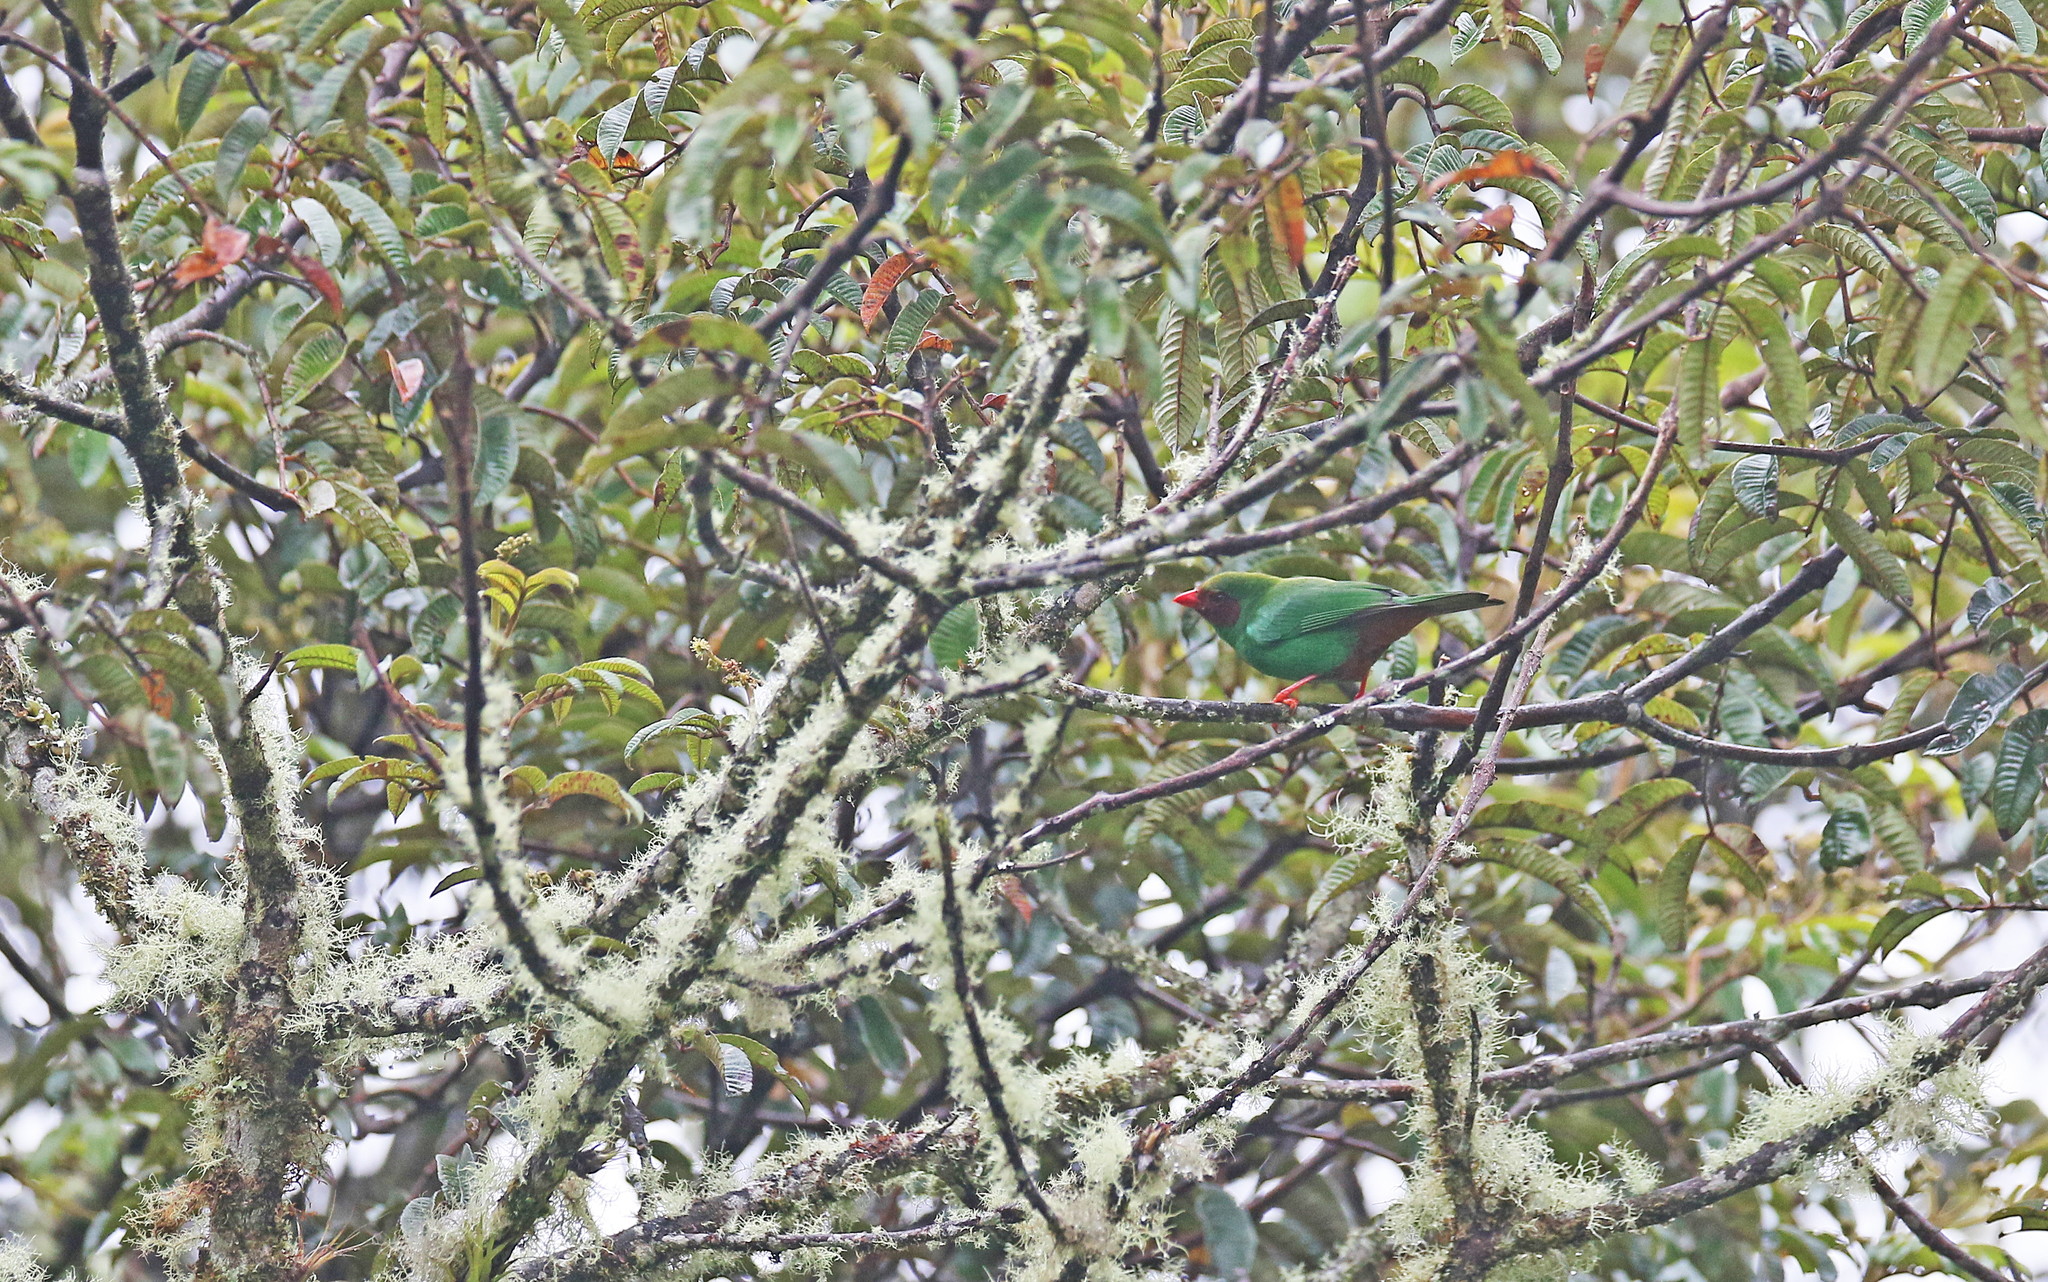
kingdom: Animalia
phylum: Chordata
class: Aves
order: Passeriformes
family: Thraupidae
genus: Chlorornis
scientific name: Chlorornis riefferii
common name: Grass-green tanager
